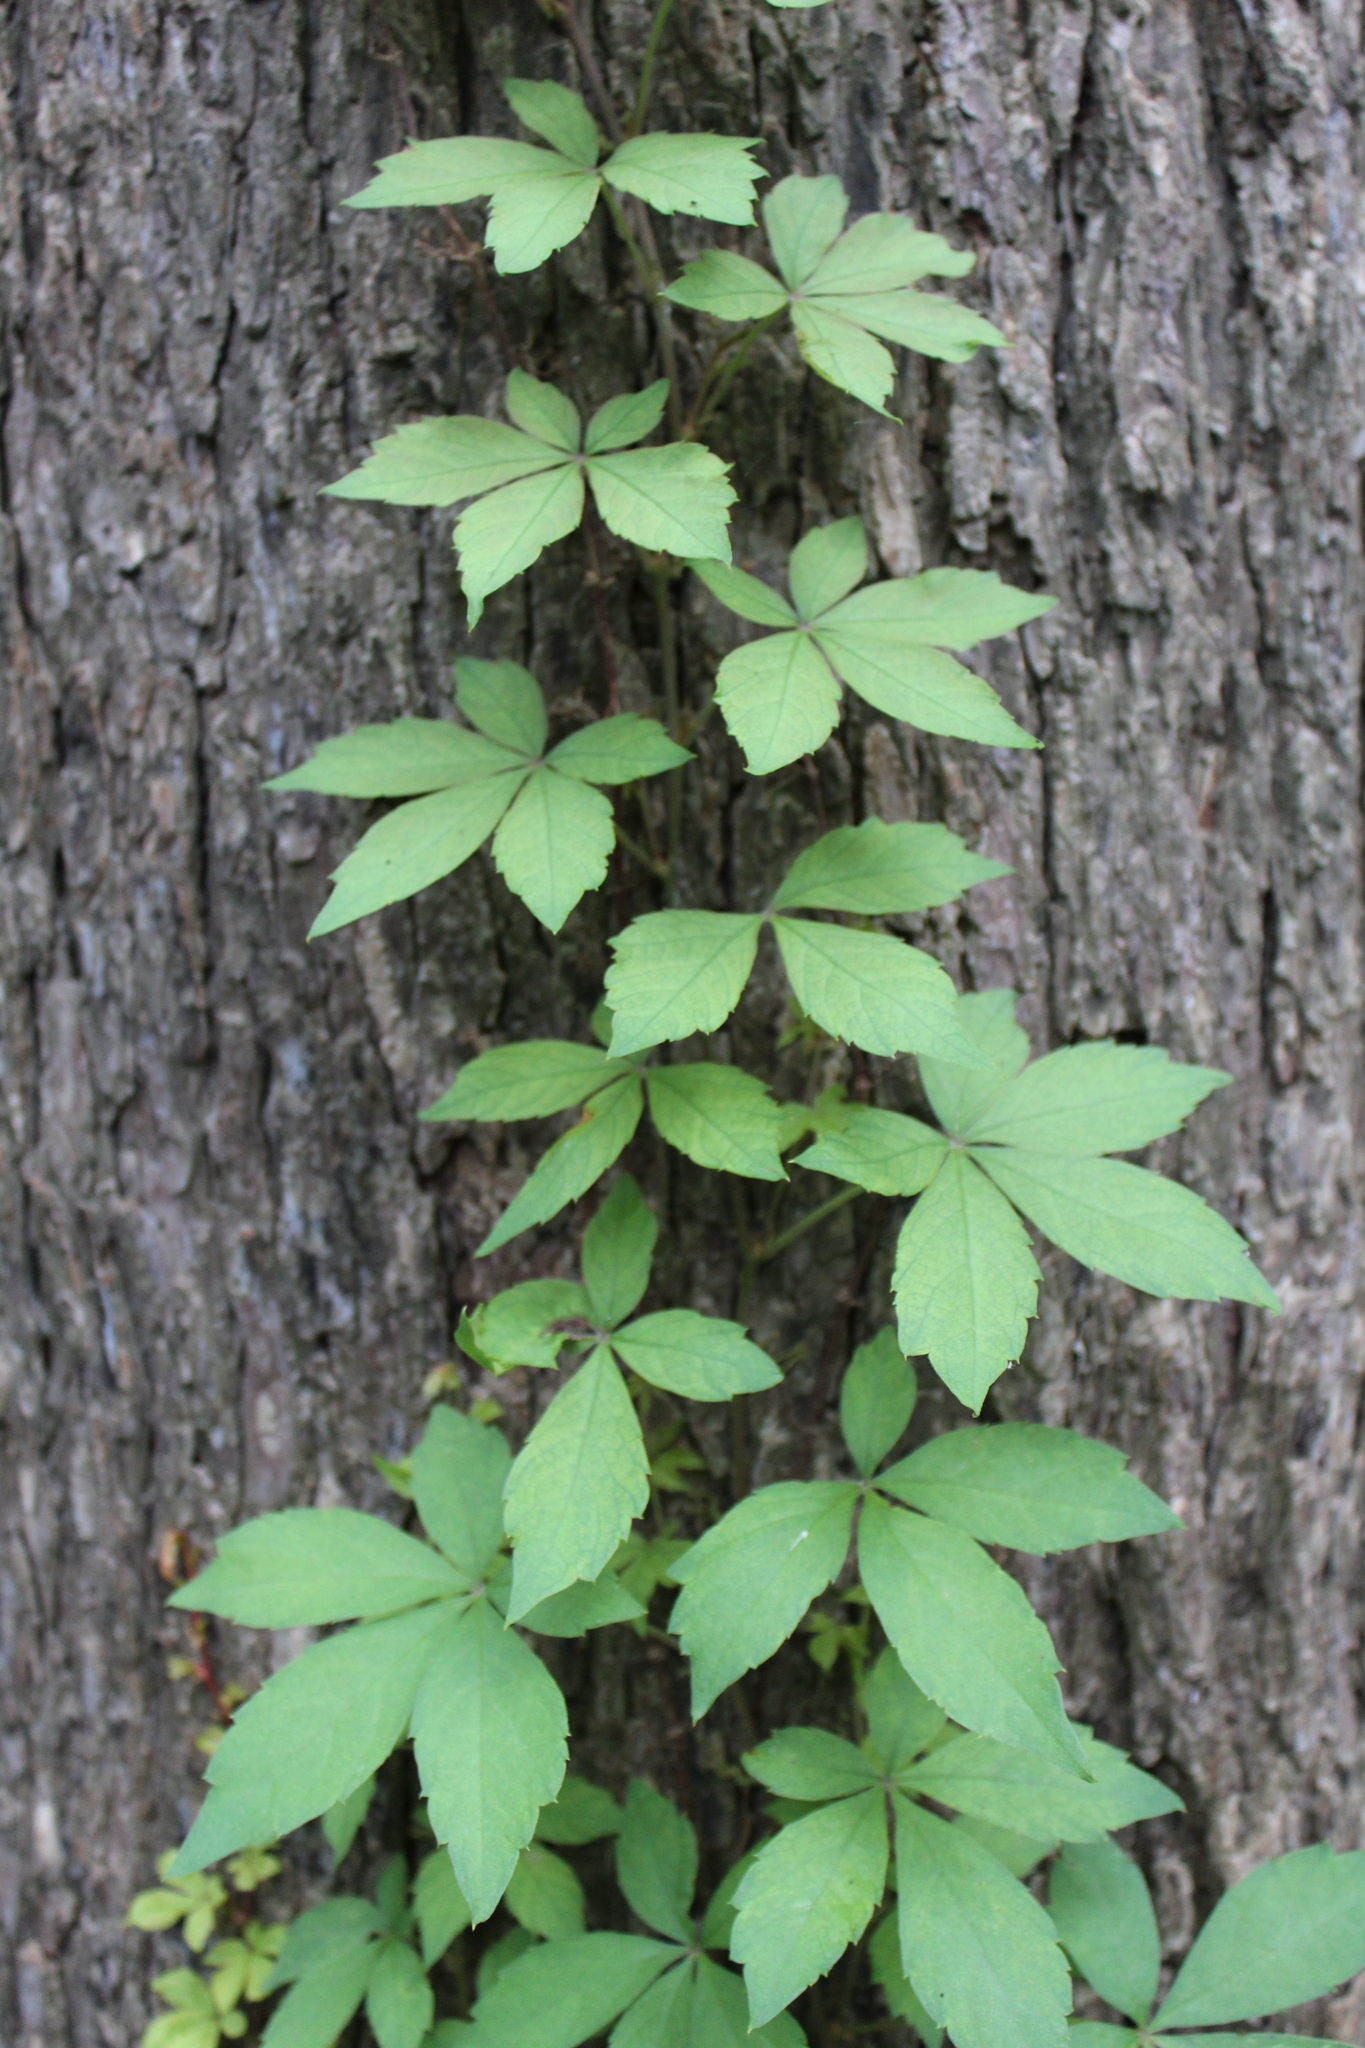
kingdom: Plantae
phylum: Tracheophyta
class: Magnoliopsida
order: Vitales
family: Vitaceae
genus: Parthenocissus
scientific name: Parthenocissus quinquefolia
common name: Virginia-creeper
